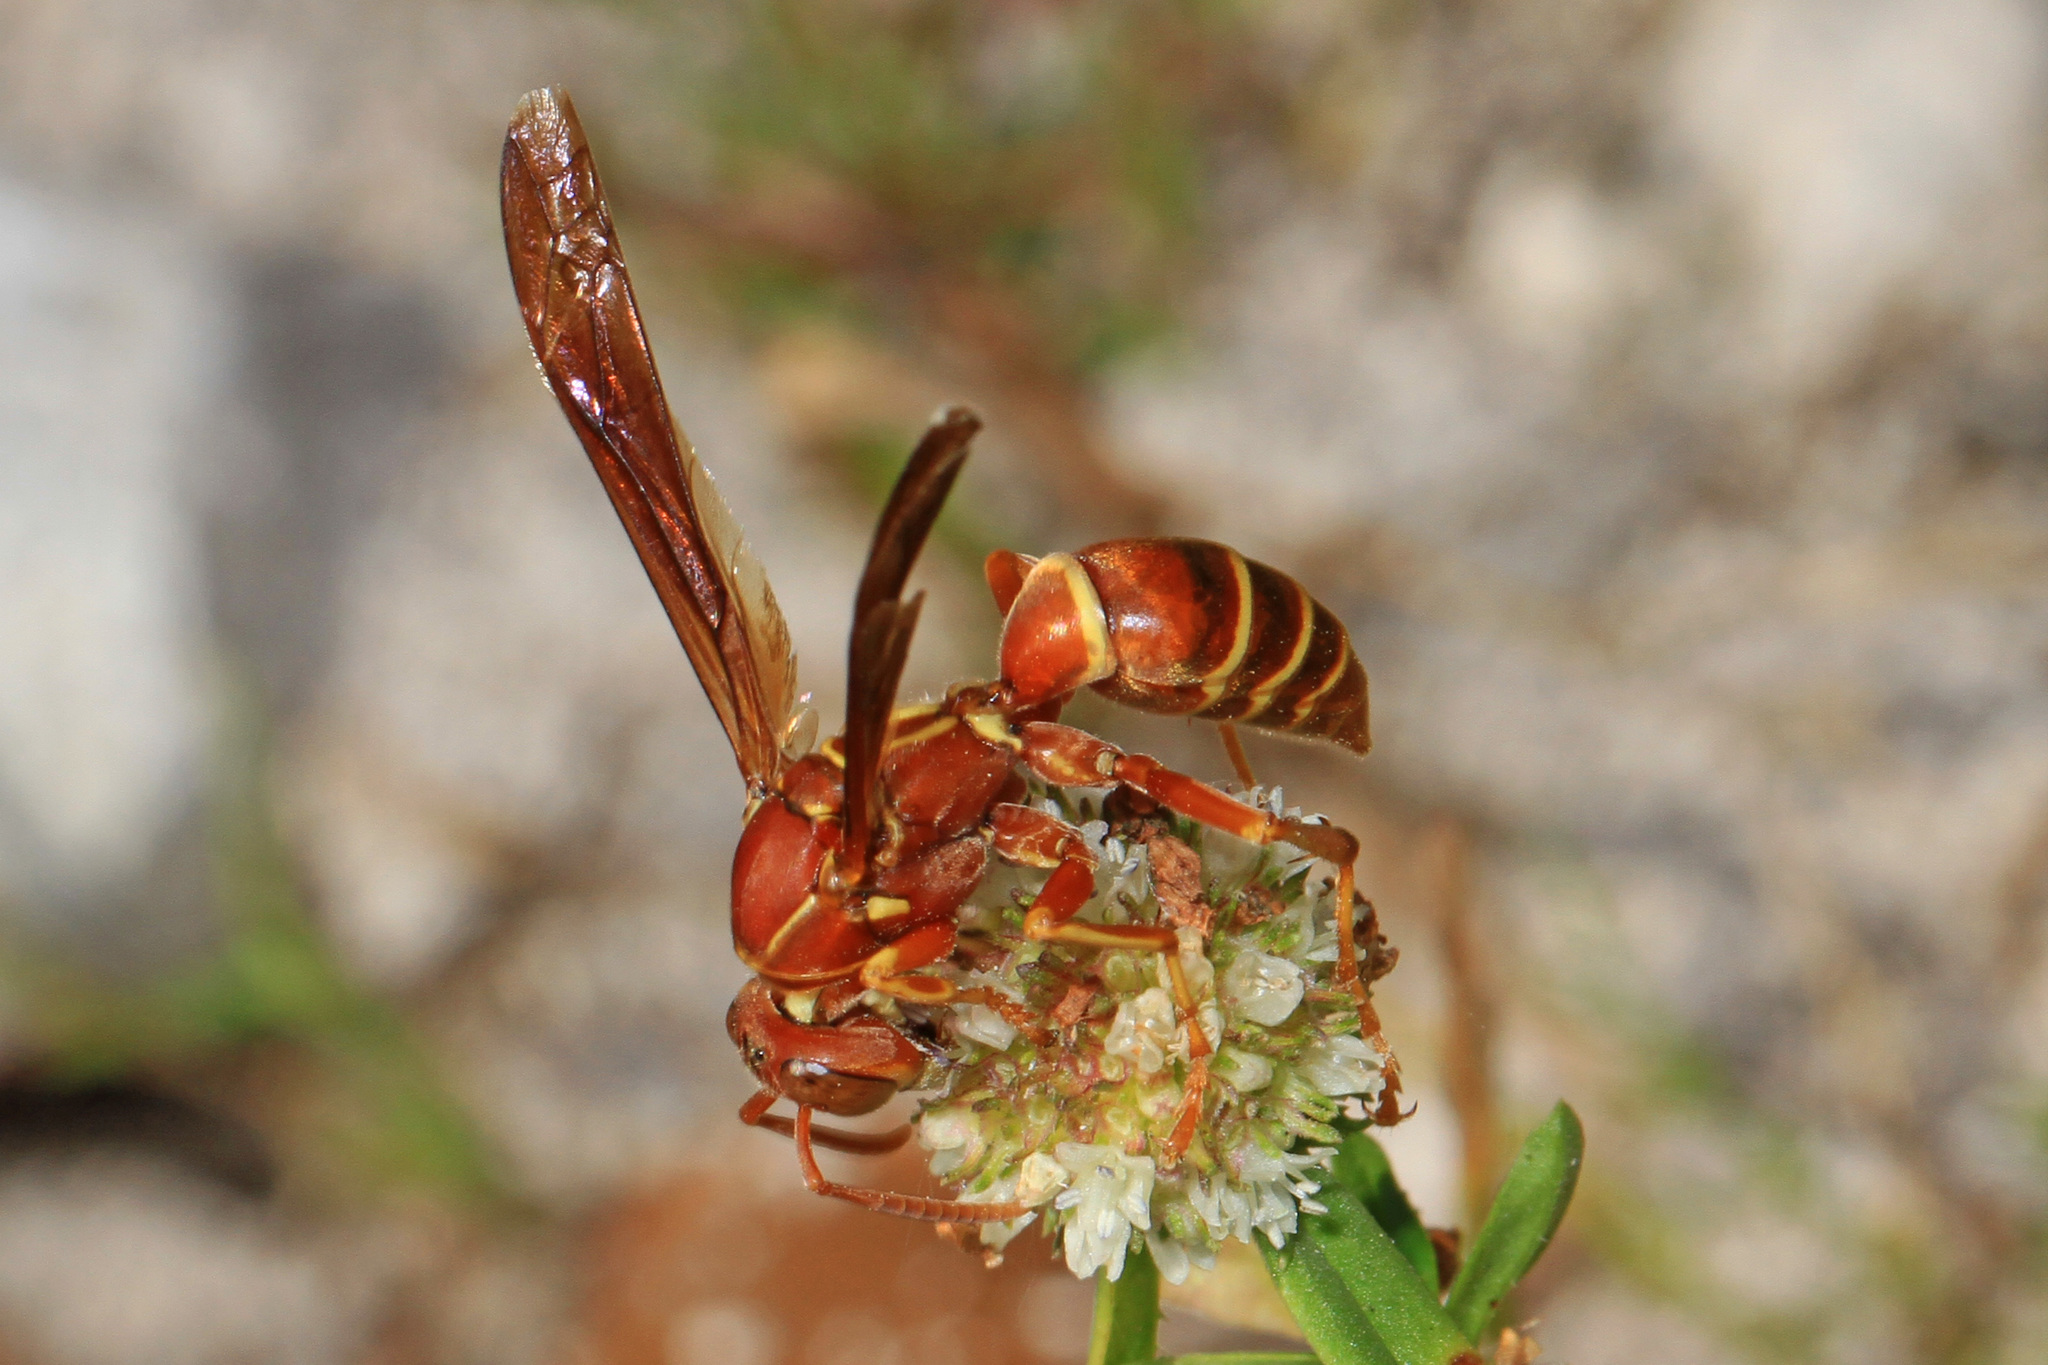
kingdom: Animalia
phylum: Arthropoda
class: Insecta
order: Hymenoptera
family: Eumenidae
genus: Polistes
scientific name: Polistes bellicosus
